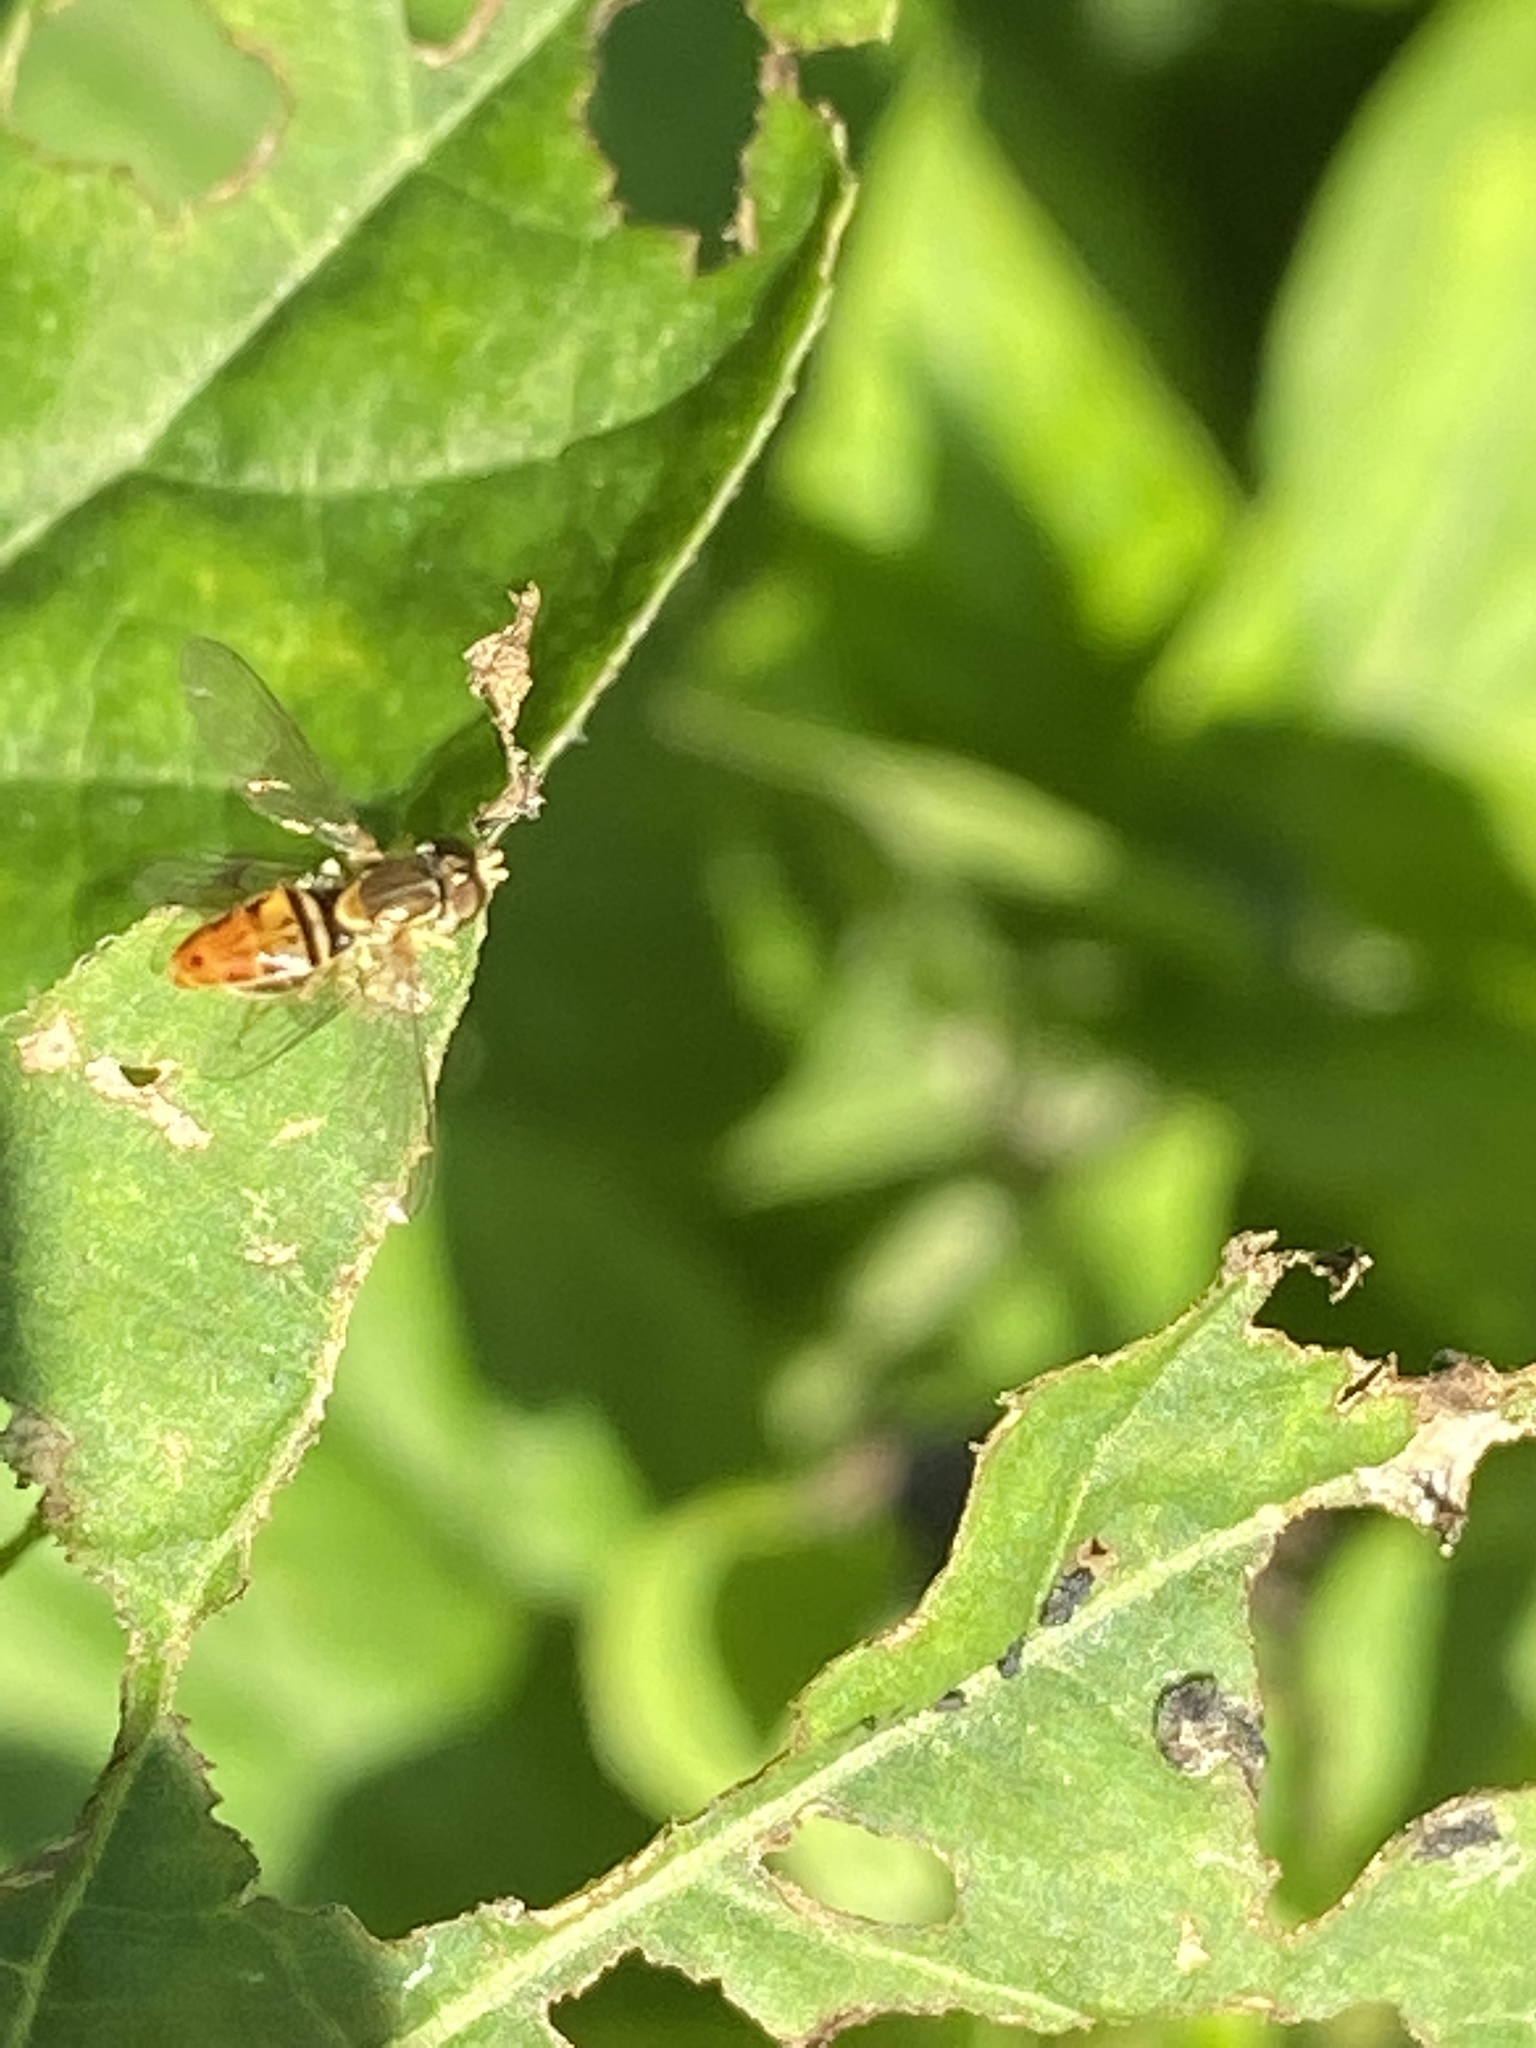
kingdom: Animalia
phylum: Arthropoda
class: Insecta
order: Diptera
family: Syrphidae
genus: Toxomerus
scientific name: Toxomerus marginatus
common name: Syrphid fly
